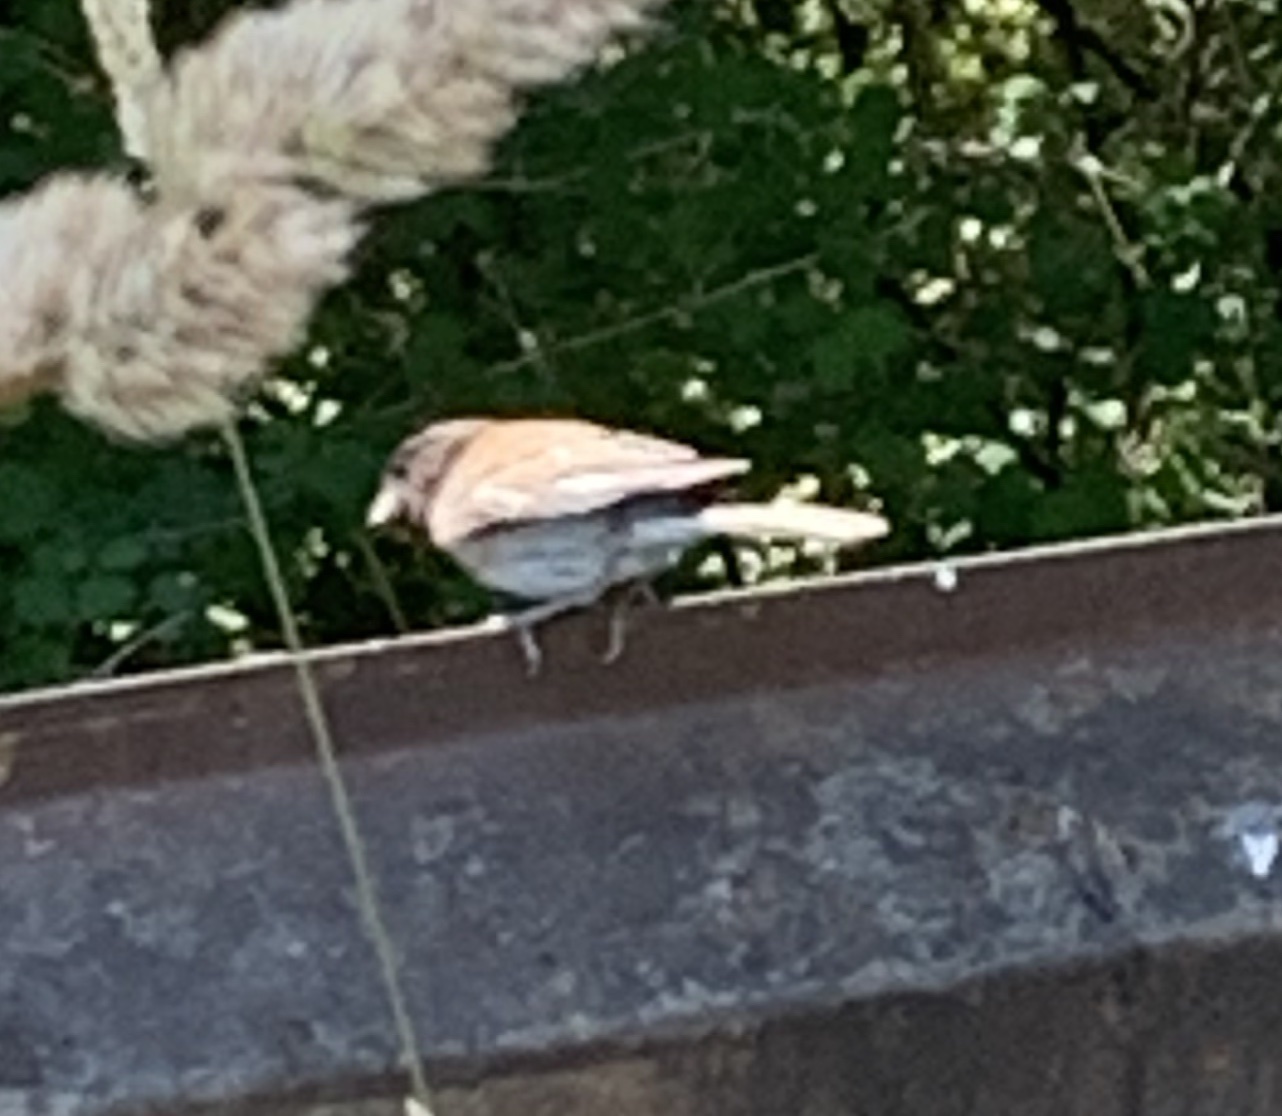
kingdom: Animalia
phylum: Chordata
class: Aves
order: Passeriformes
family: Passerellidae
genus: Junco
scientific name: Junco hyemalis
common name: Dark-eyed junco
